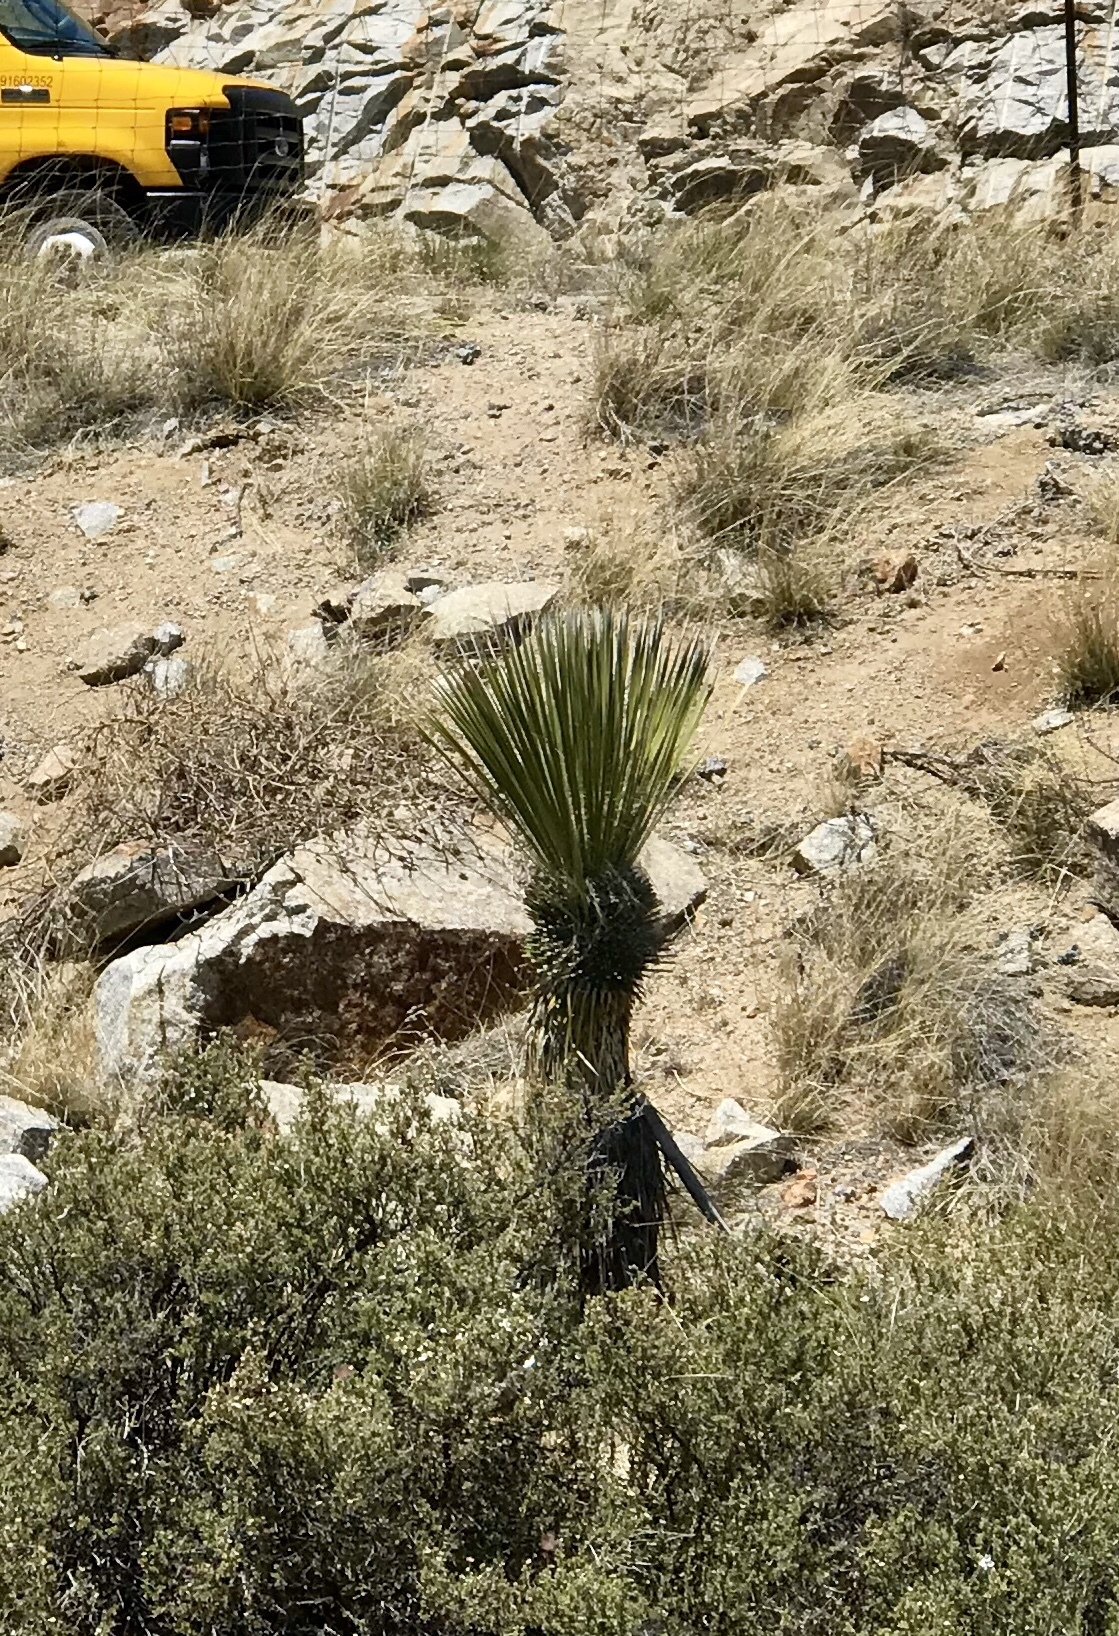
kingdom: Plantae
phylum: Tracheophyta
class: Liliopsida
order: Asparagales
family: Asparagaceae
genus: Yucca
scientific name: Yucca elata
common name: Palmella
